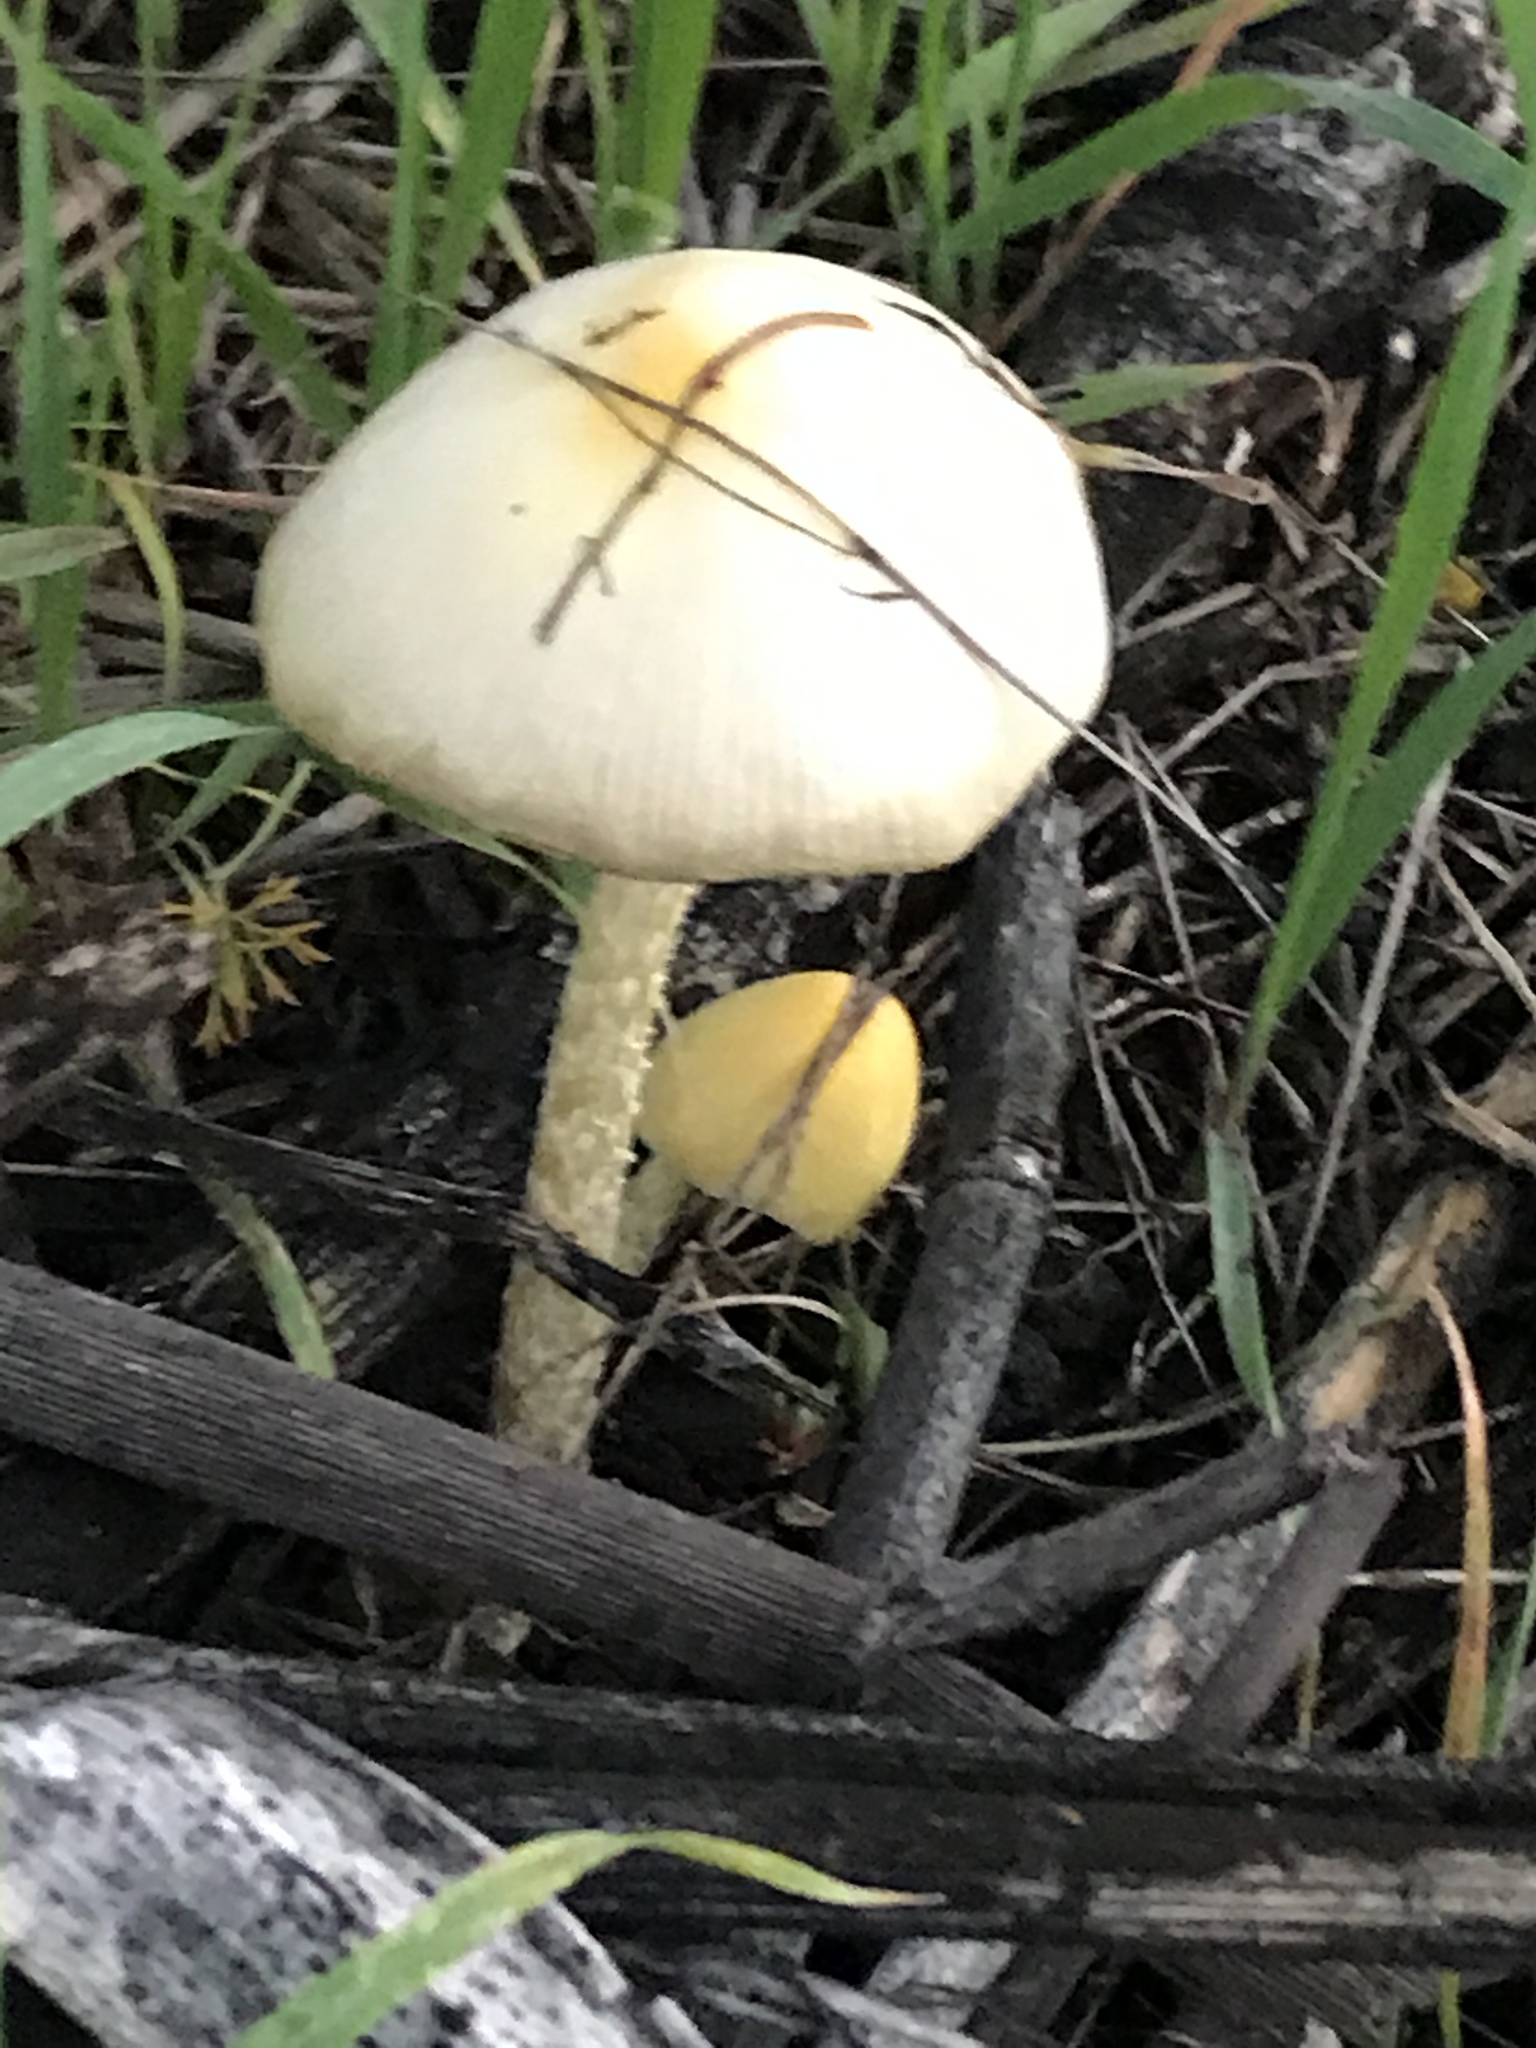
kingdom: Fungi
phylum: Basidiomycota
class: Agaricomycetes
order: Agaricales
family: Bolbitiaceae
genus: Bolbitius
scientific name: Bolbitius titubans
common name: Yellow fieldcap
